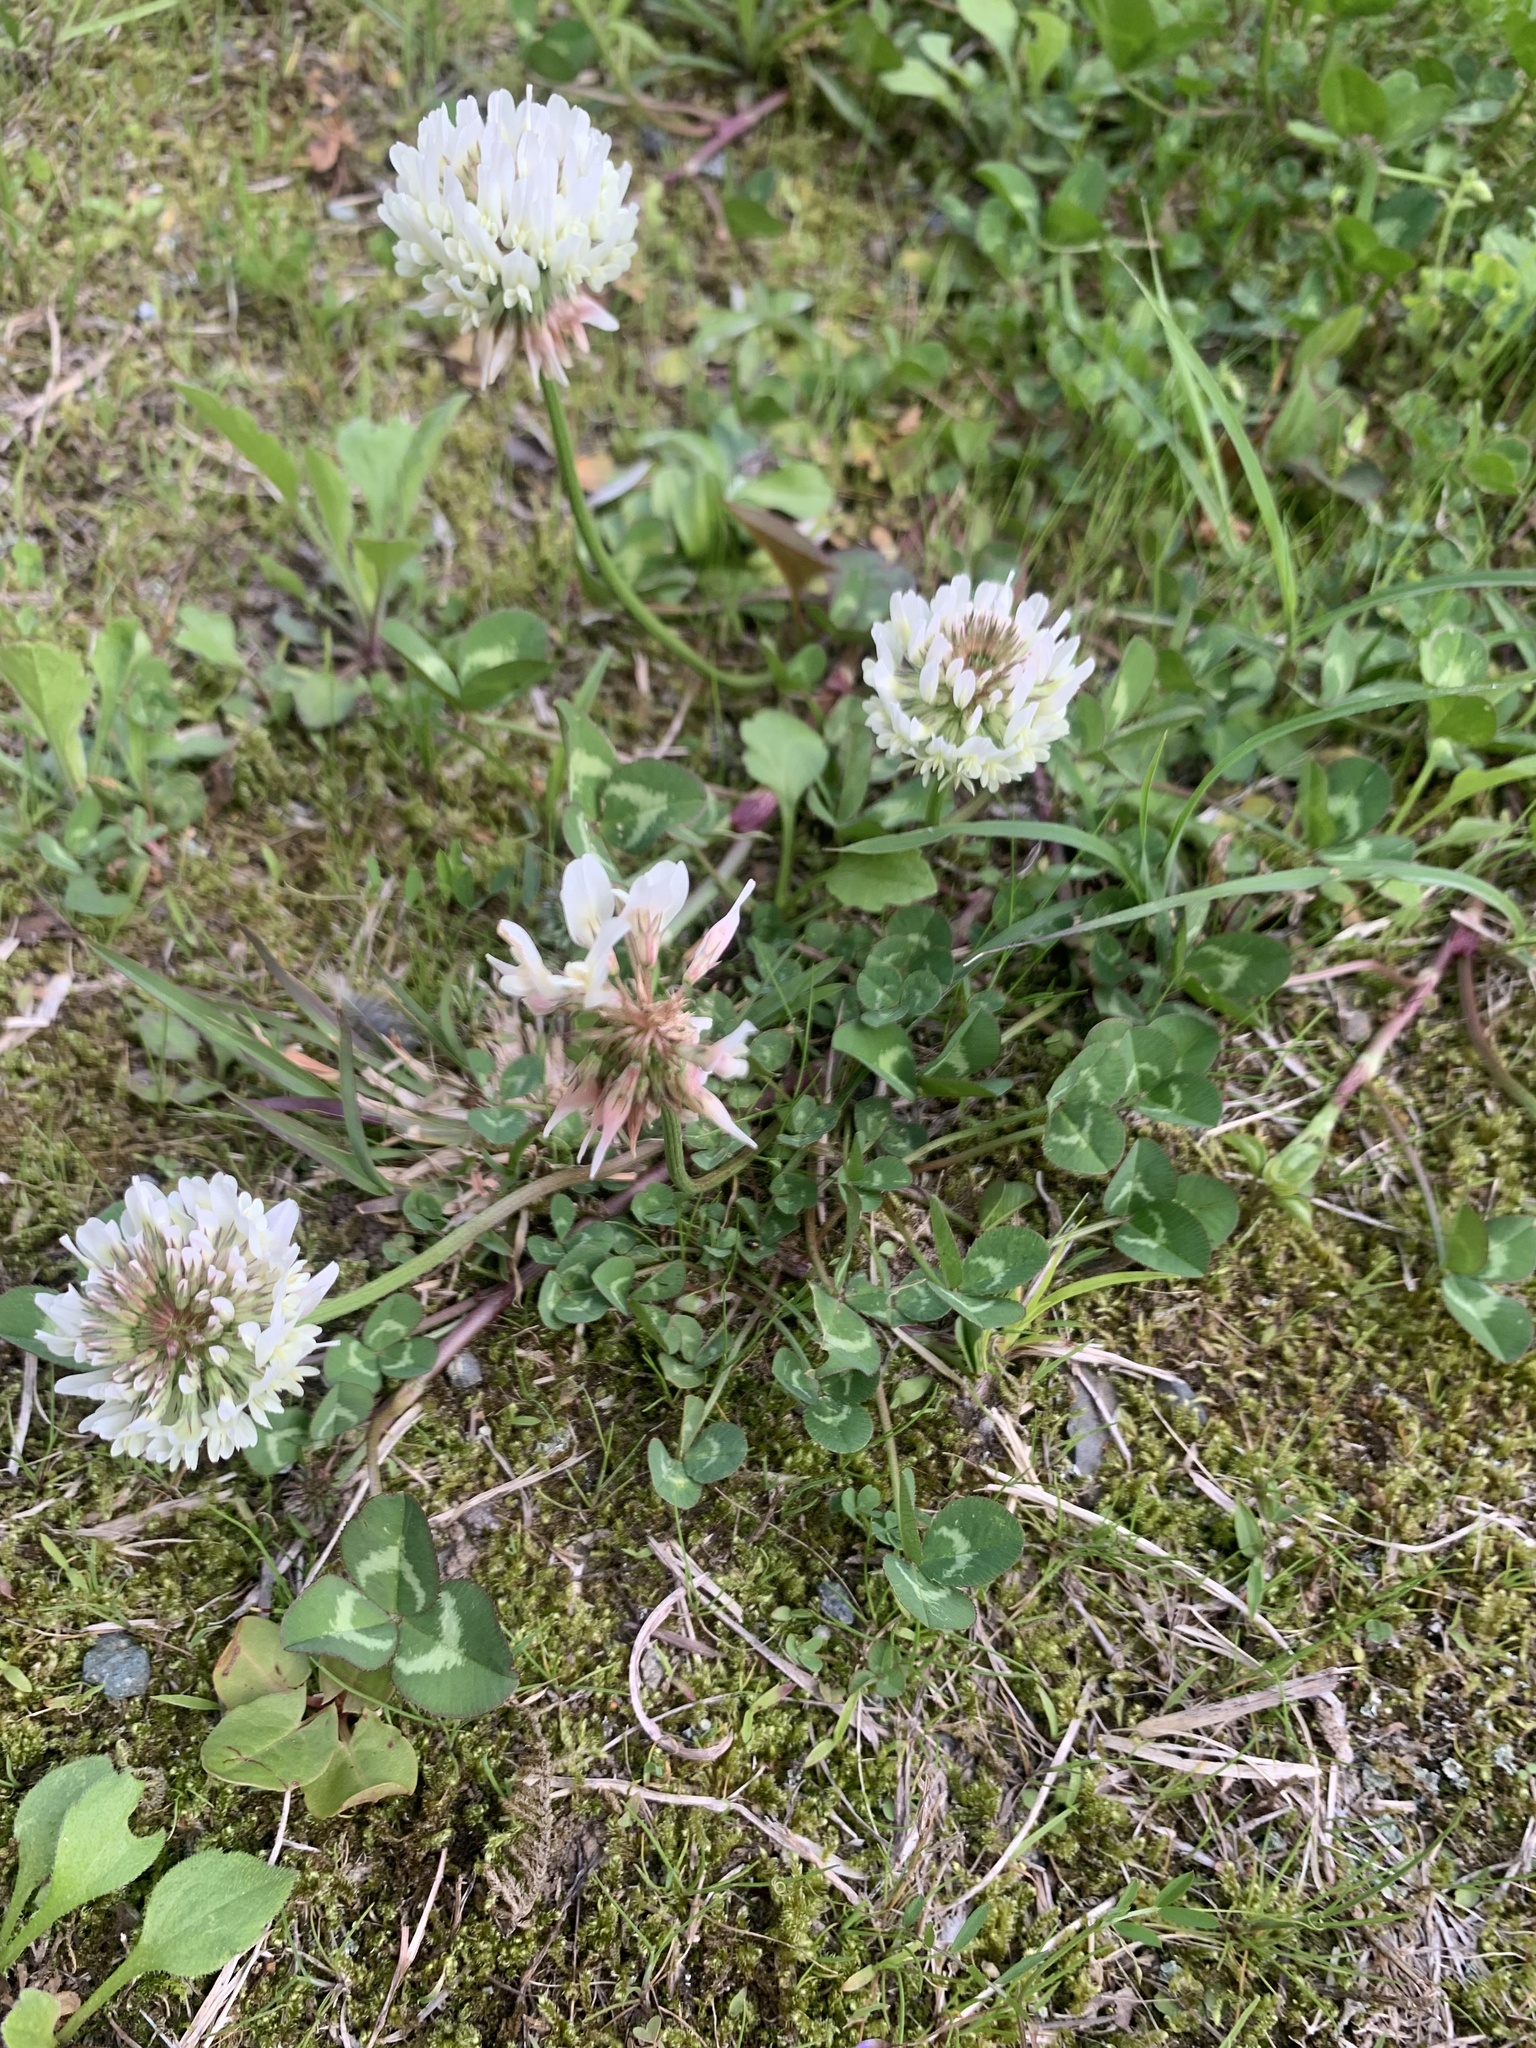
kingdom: Plantae
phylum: Tracheophyta
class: Magnoliopsida
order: Fabales
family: Fabaceae
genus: Trifolium
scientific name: Trifolium repens
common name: White clover
